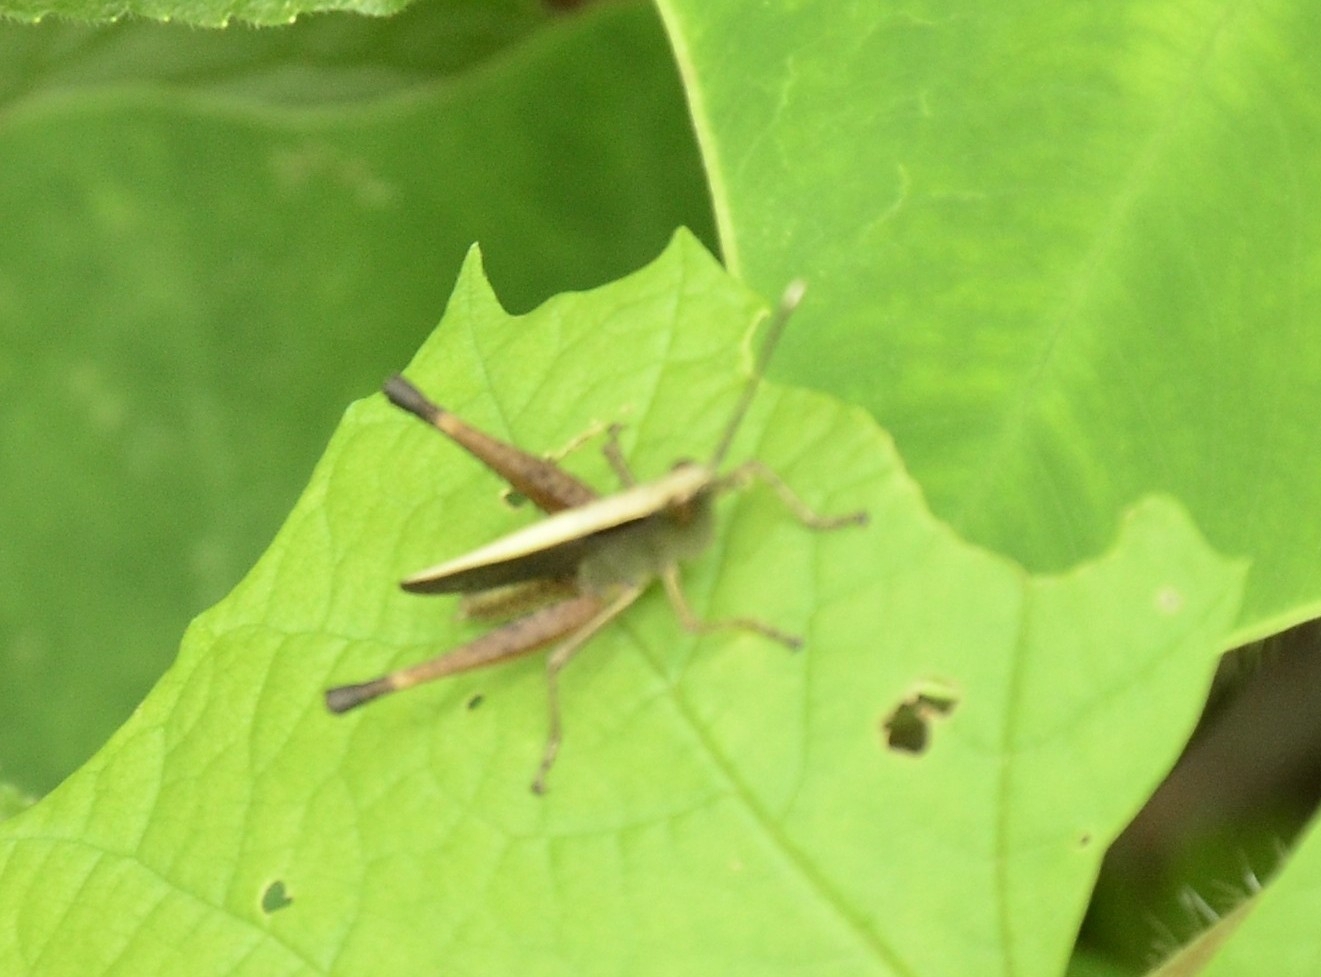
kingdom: Animalia
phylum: Arthropoda
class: Insecta
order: Orthoptera
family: Acrididae
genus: Phlaeoba
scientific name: Phlaeoba antennata
